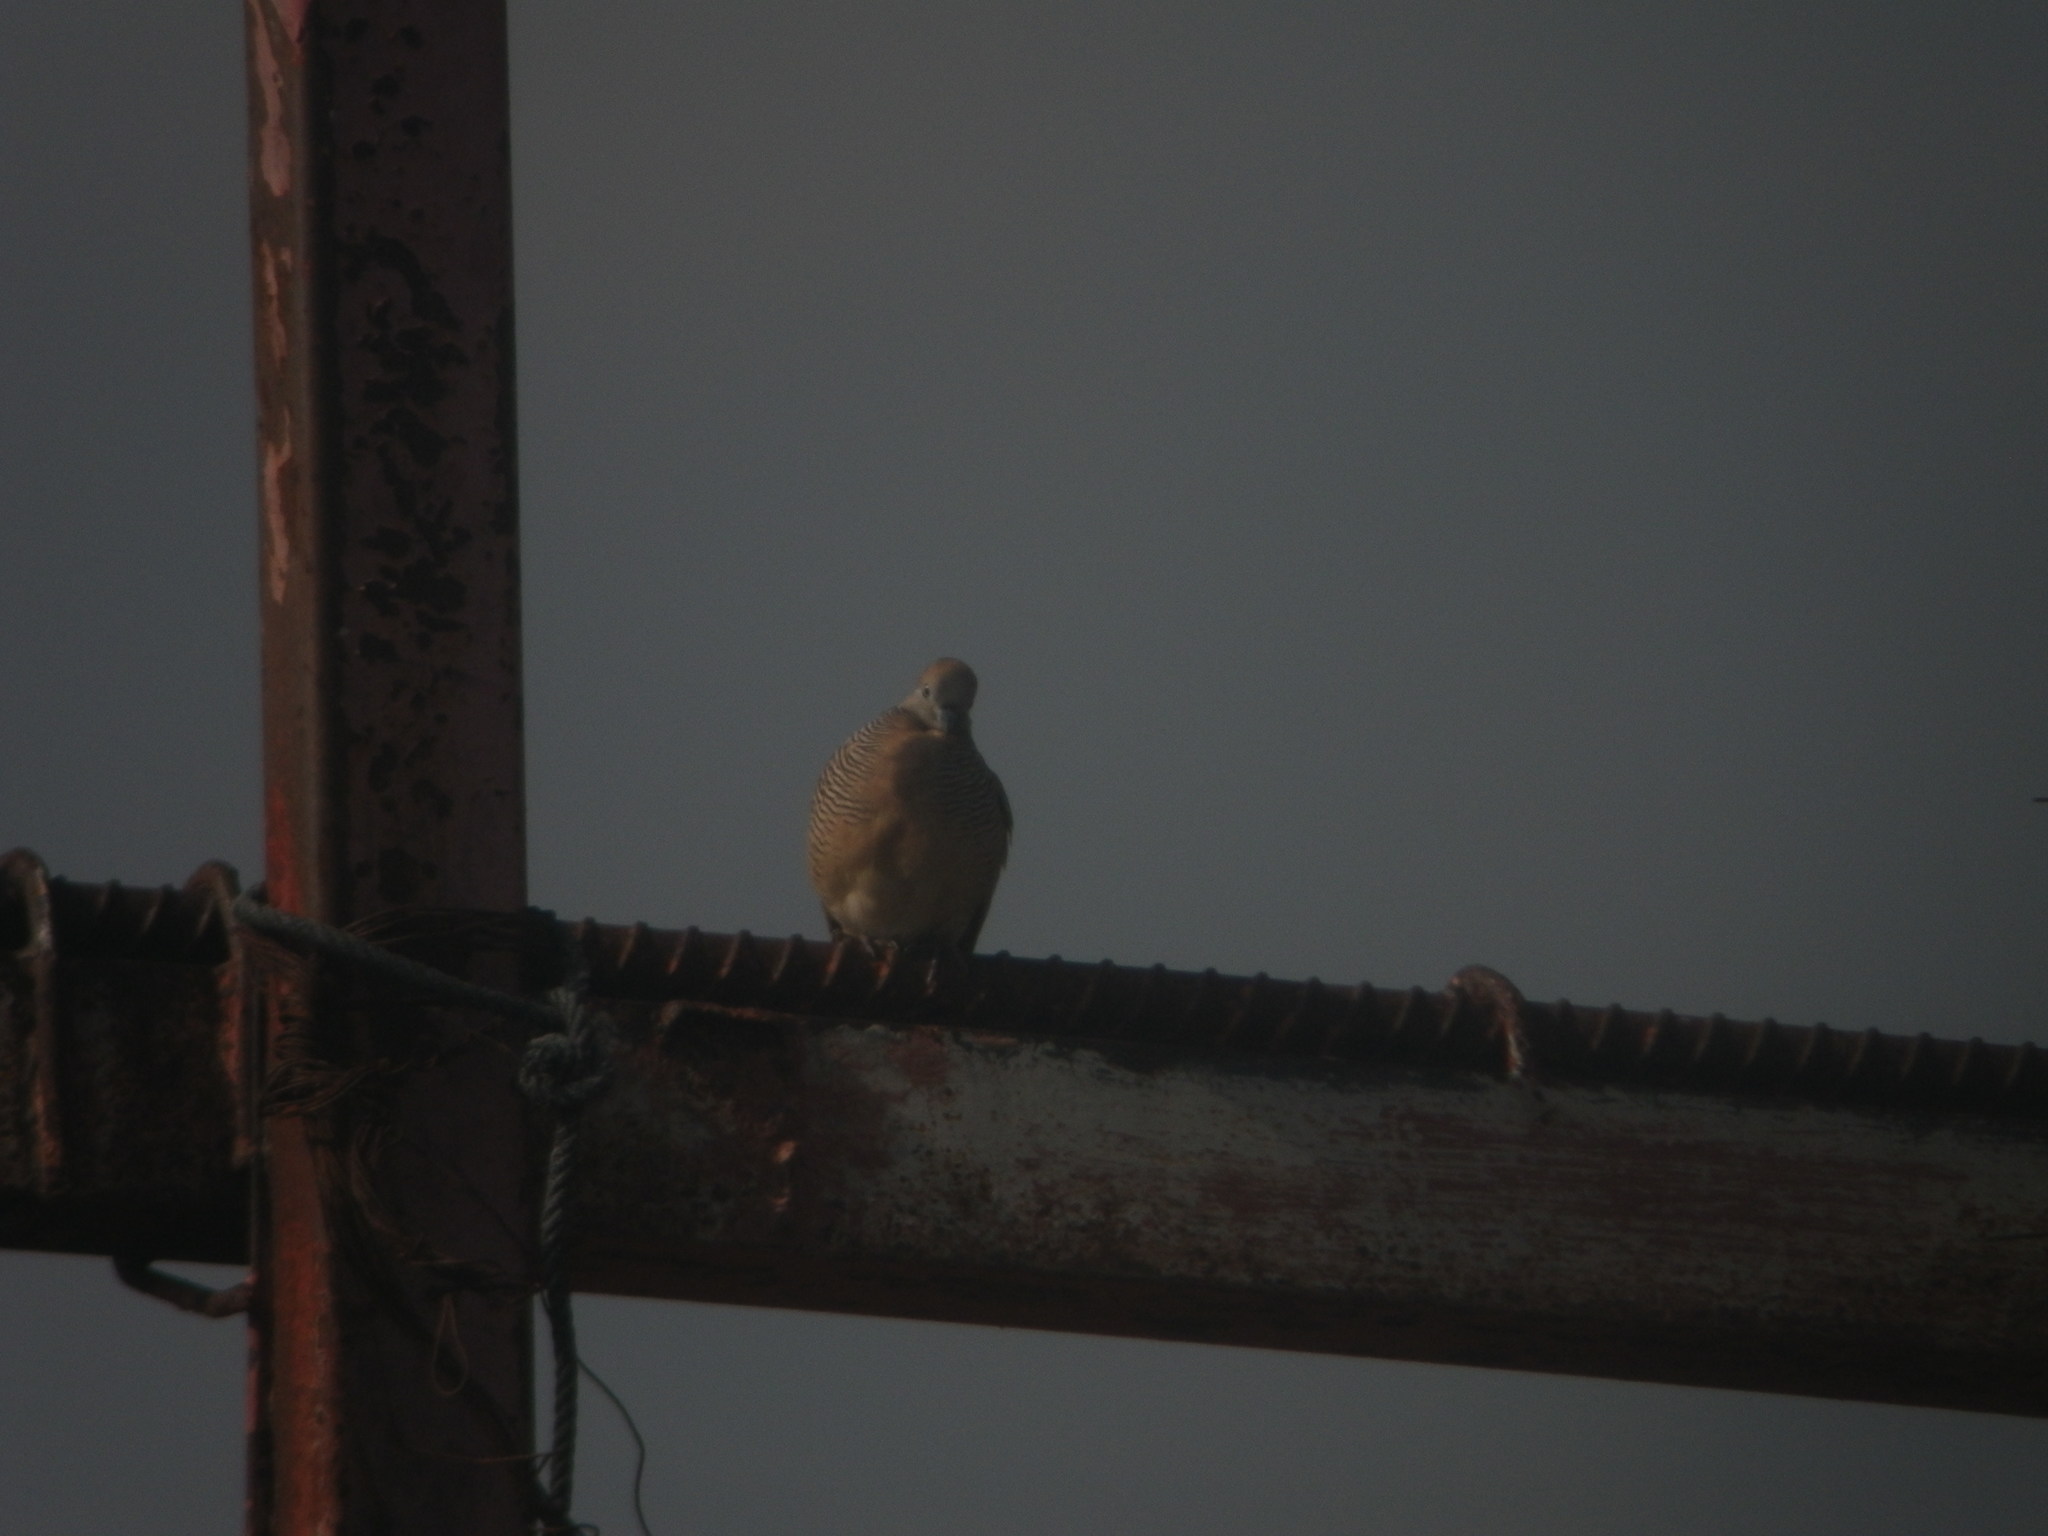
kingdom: Animalia
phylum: Chordata
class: Aves
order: Columbiformes
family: Columbidae
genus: Geopelia
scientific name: Geopelia striata
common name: Zebra dove
